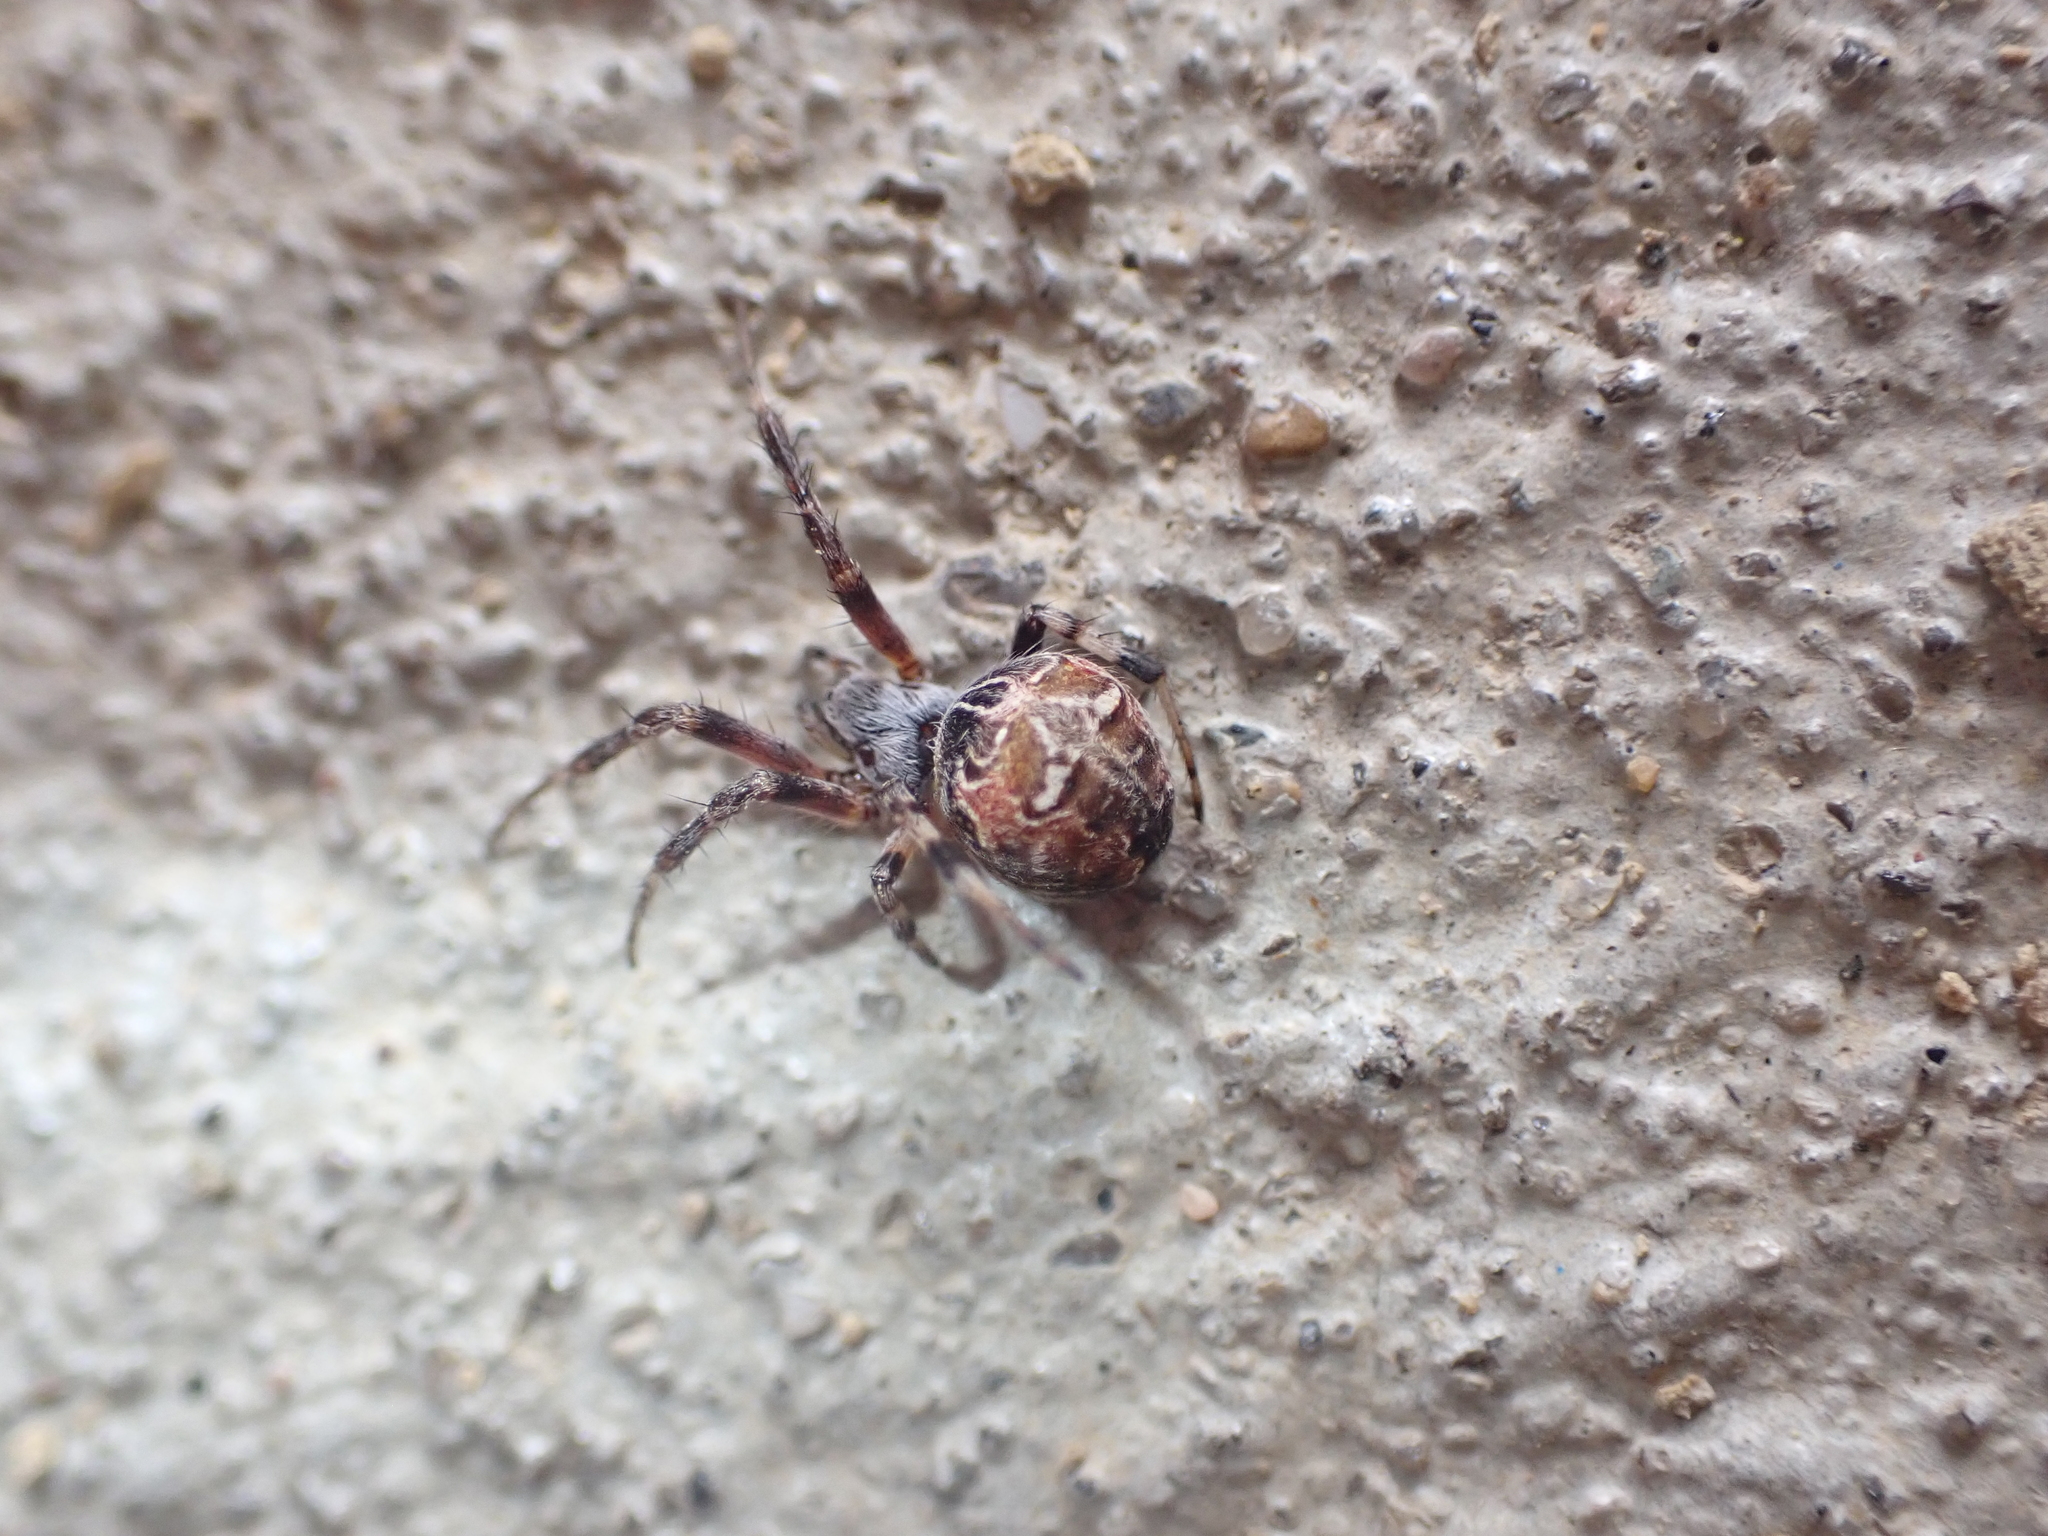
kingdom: Animalia
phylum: Arthropoda
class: Arachnida
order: Araneae
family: Araneidae
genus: Metepeira
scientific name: Metepeira labyrinthea
